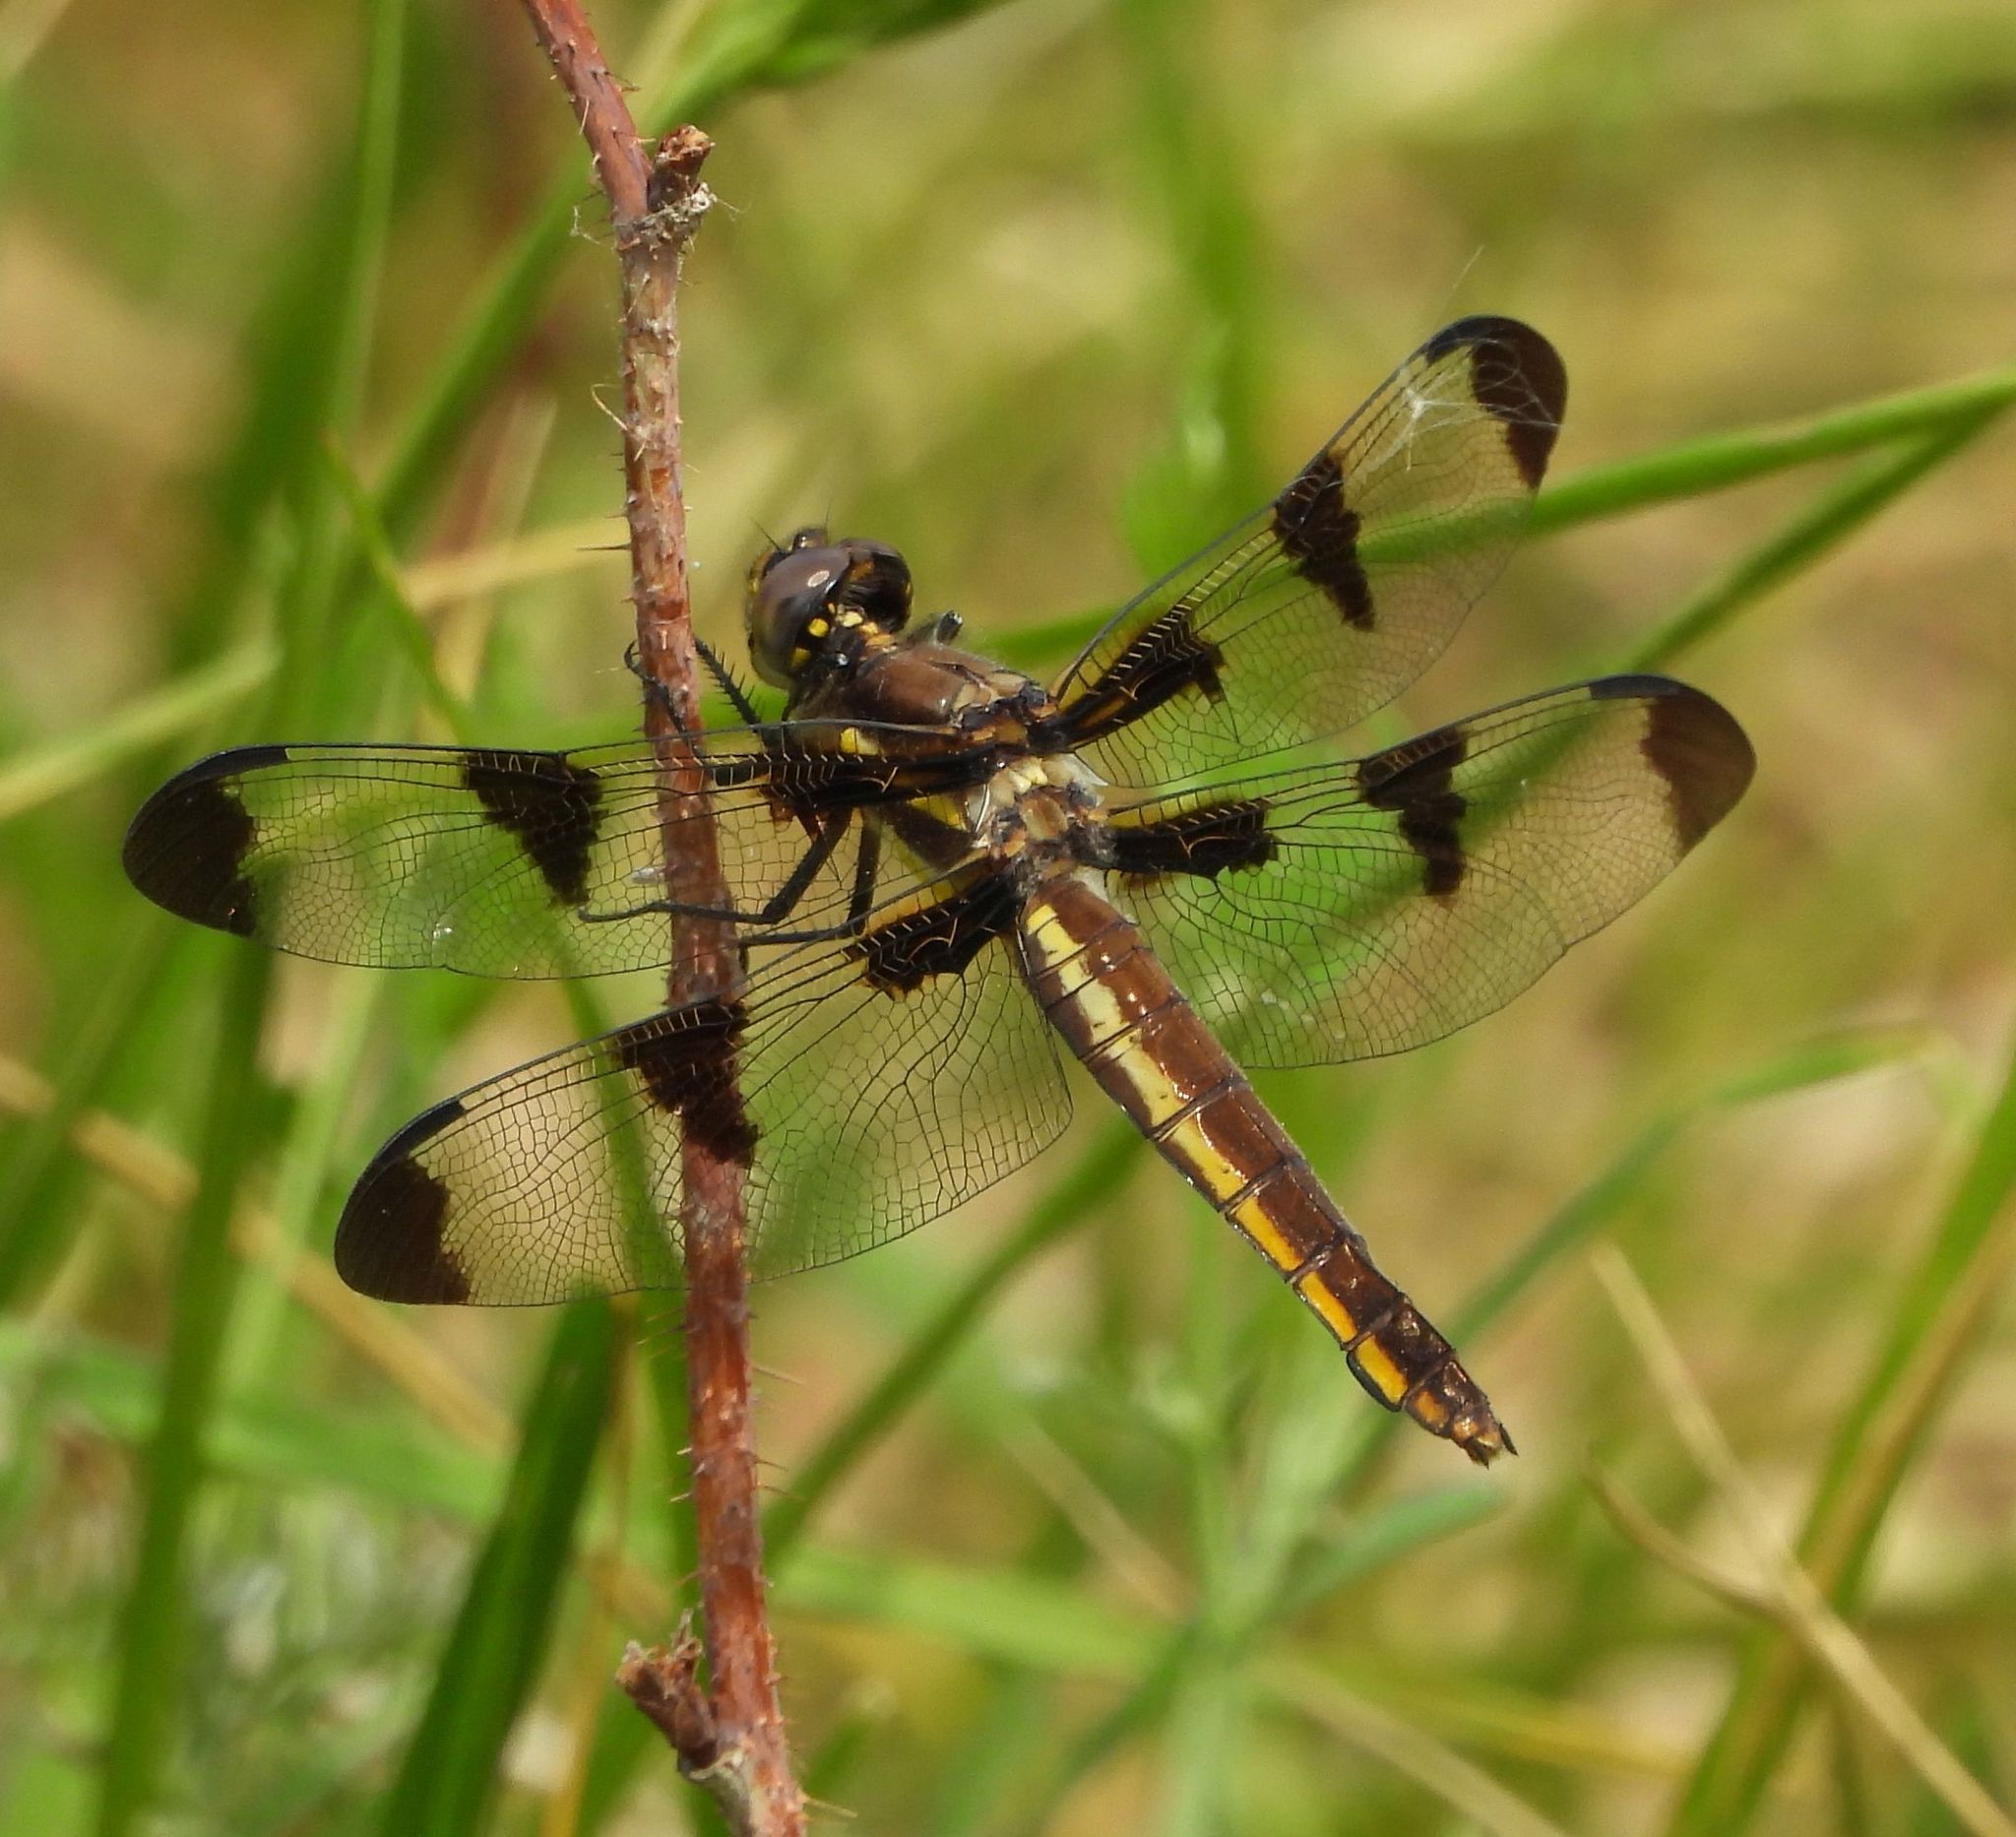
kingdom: Animalia
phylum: Arthropoda
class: Insecta
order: Odonata
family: Libellulidae
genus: Libellula
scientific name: Libellula pulchella
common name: Twelve-spotted skimmer
